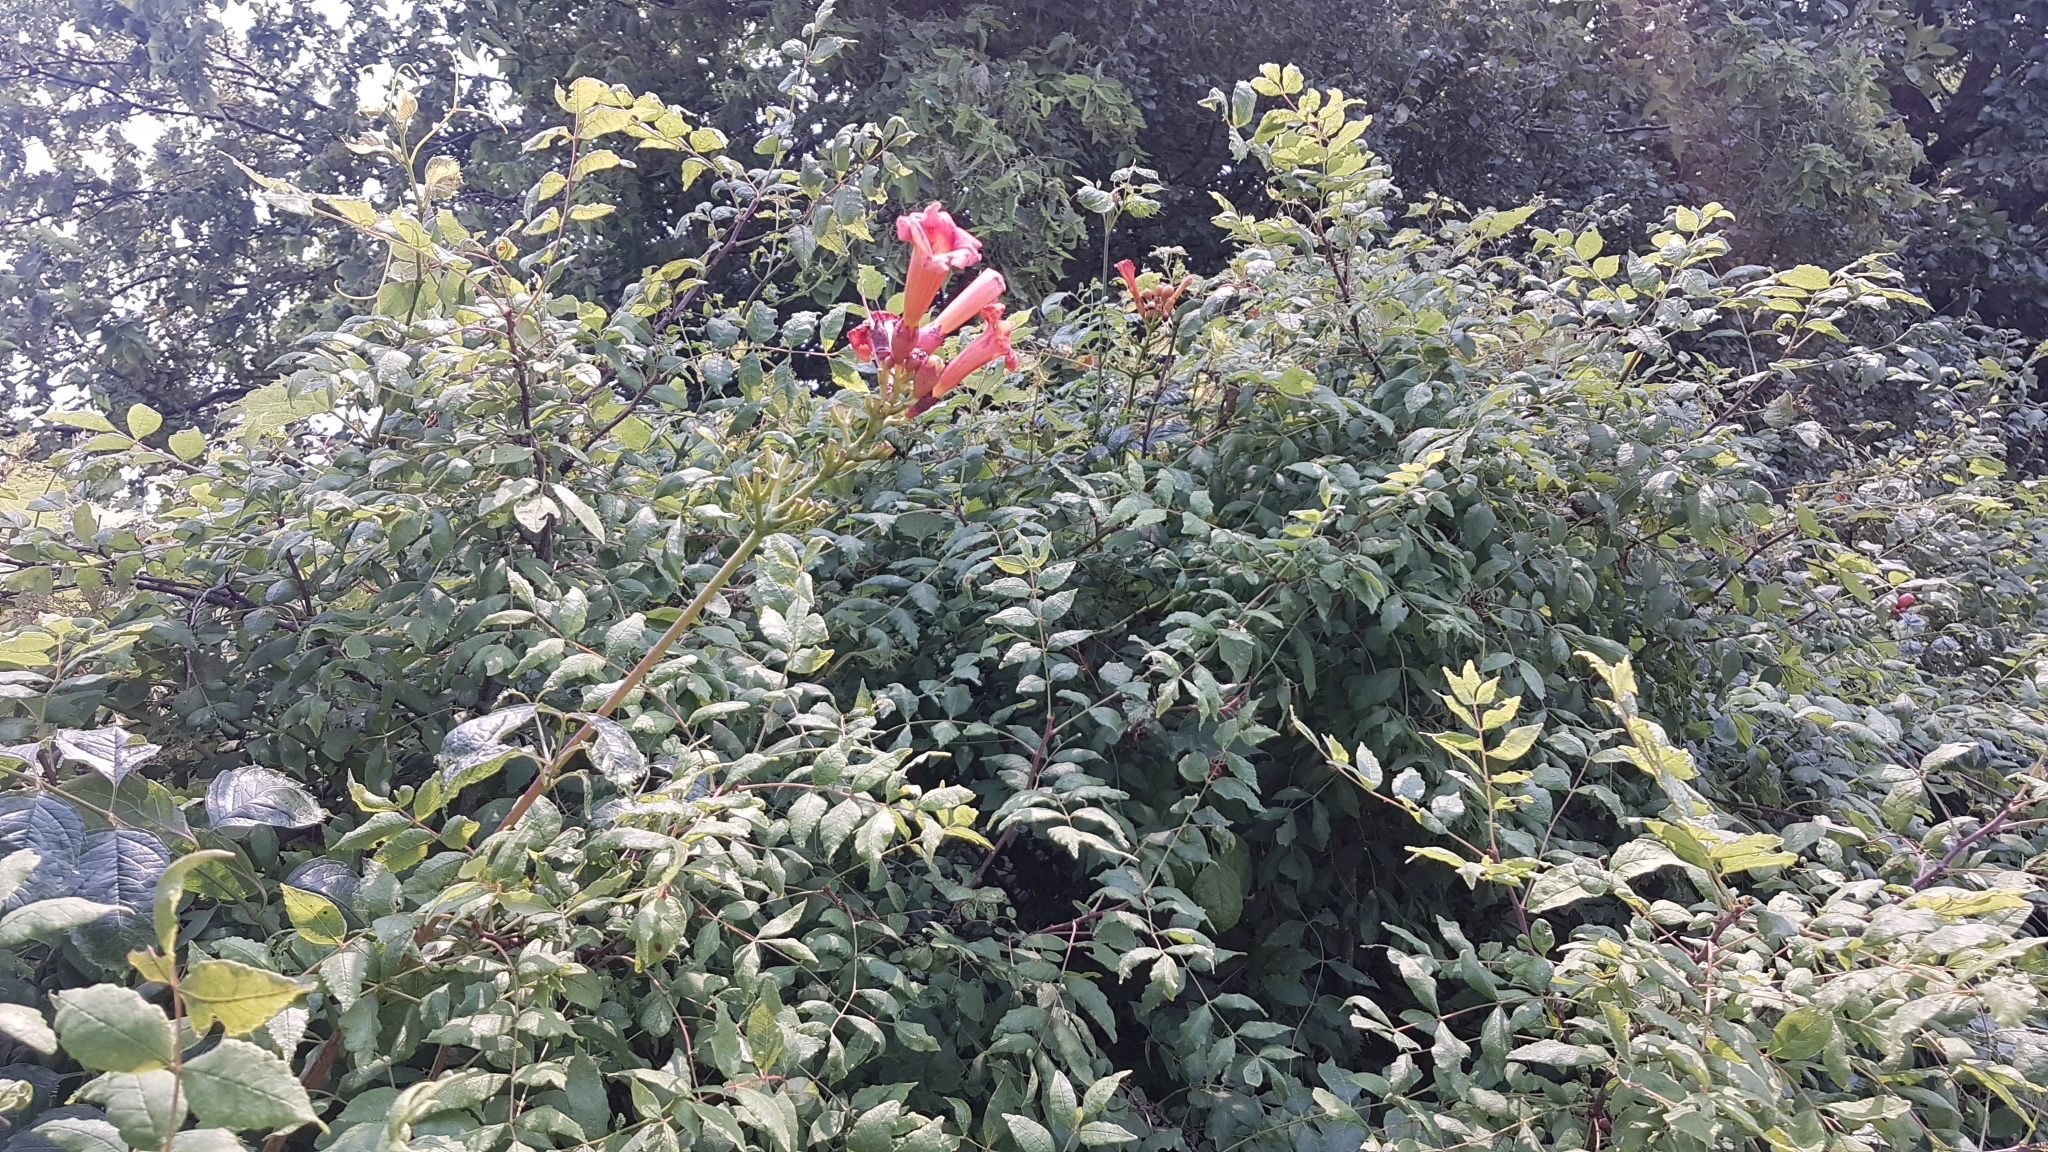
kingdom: Plantae
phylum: Tracheophyta
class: Magnoliopsida
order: Lamiales
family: Bignoniaceae
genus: Campsis
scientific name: Campsis radicans
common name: Trumpet-creeper
